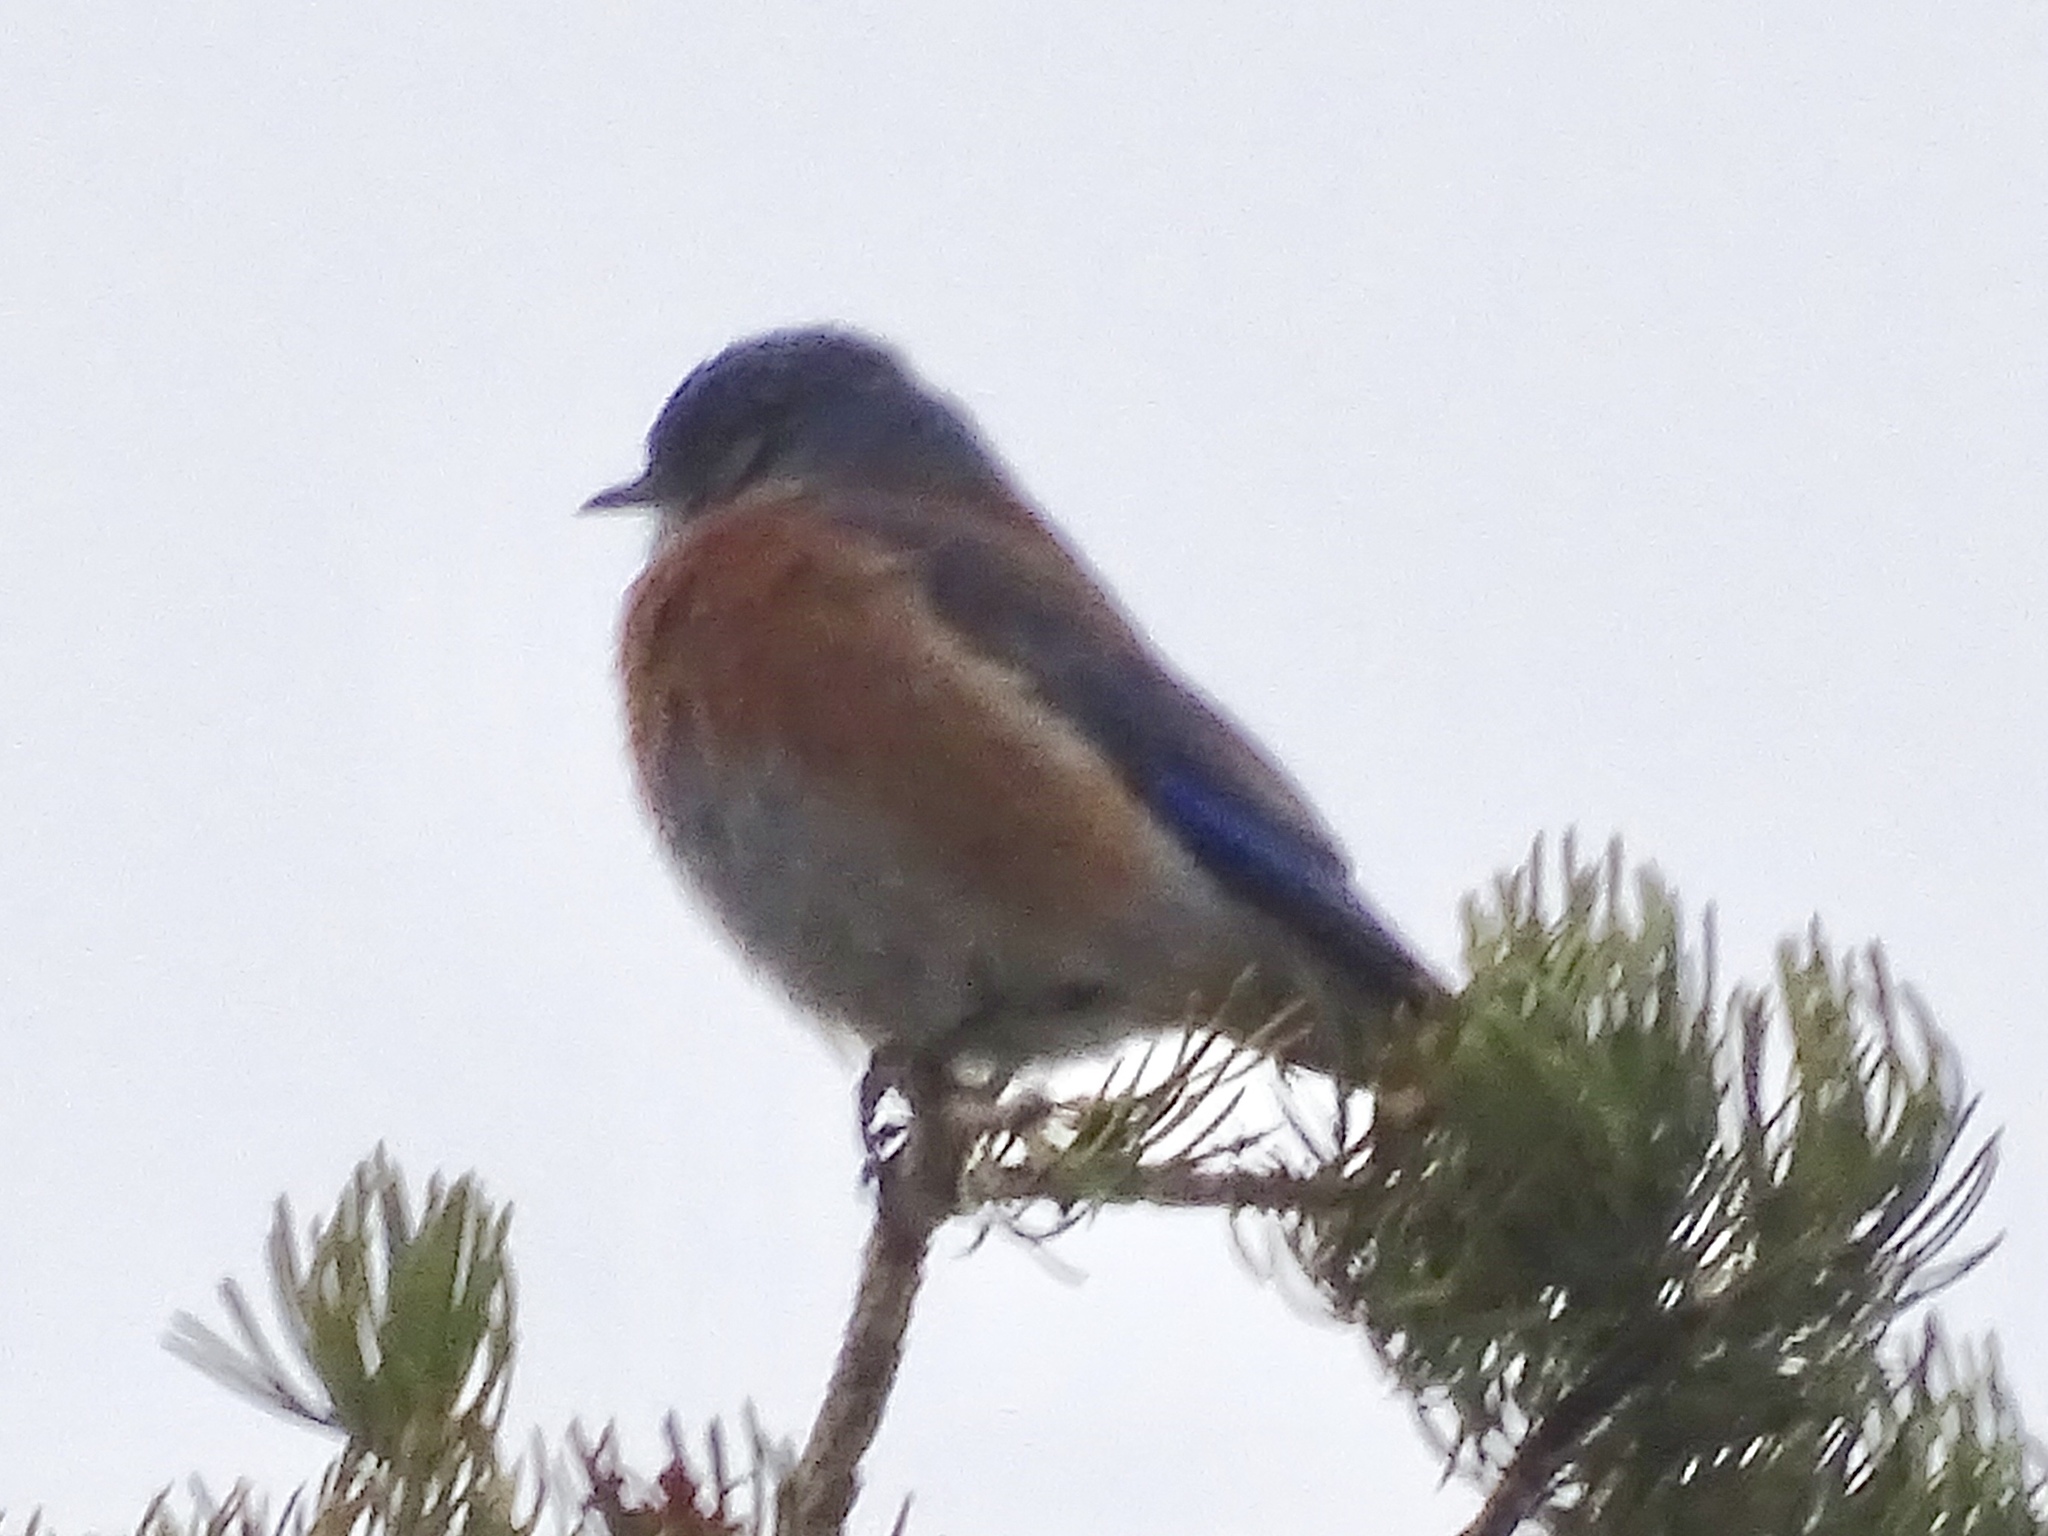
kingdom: Animalia
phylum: Chordata
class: Aves
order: Passeriformes
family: Turdidae
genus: Sialia
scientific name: Sialia mexicana
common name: Western bluebird
